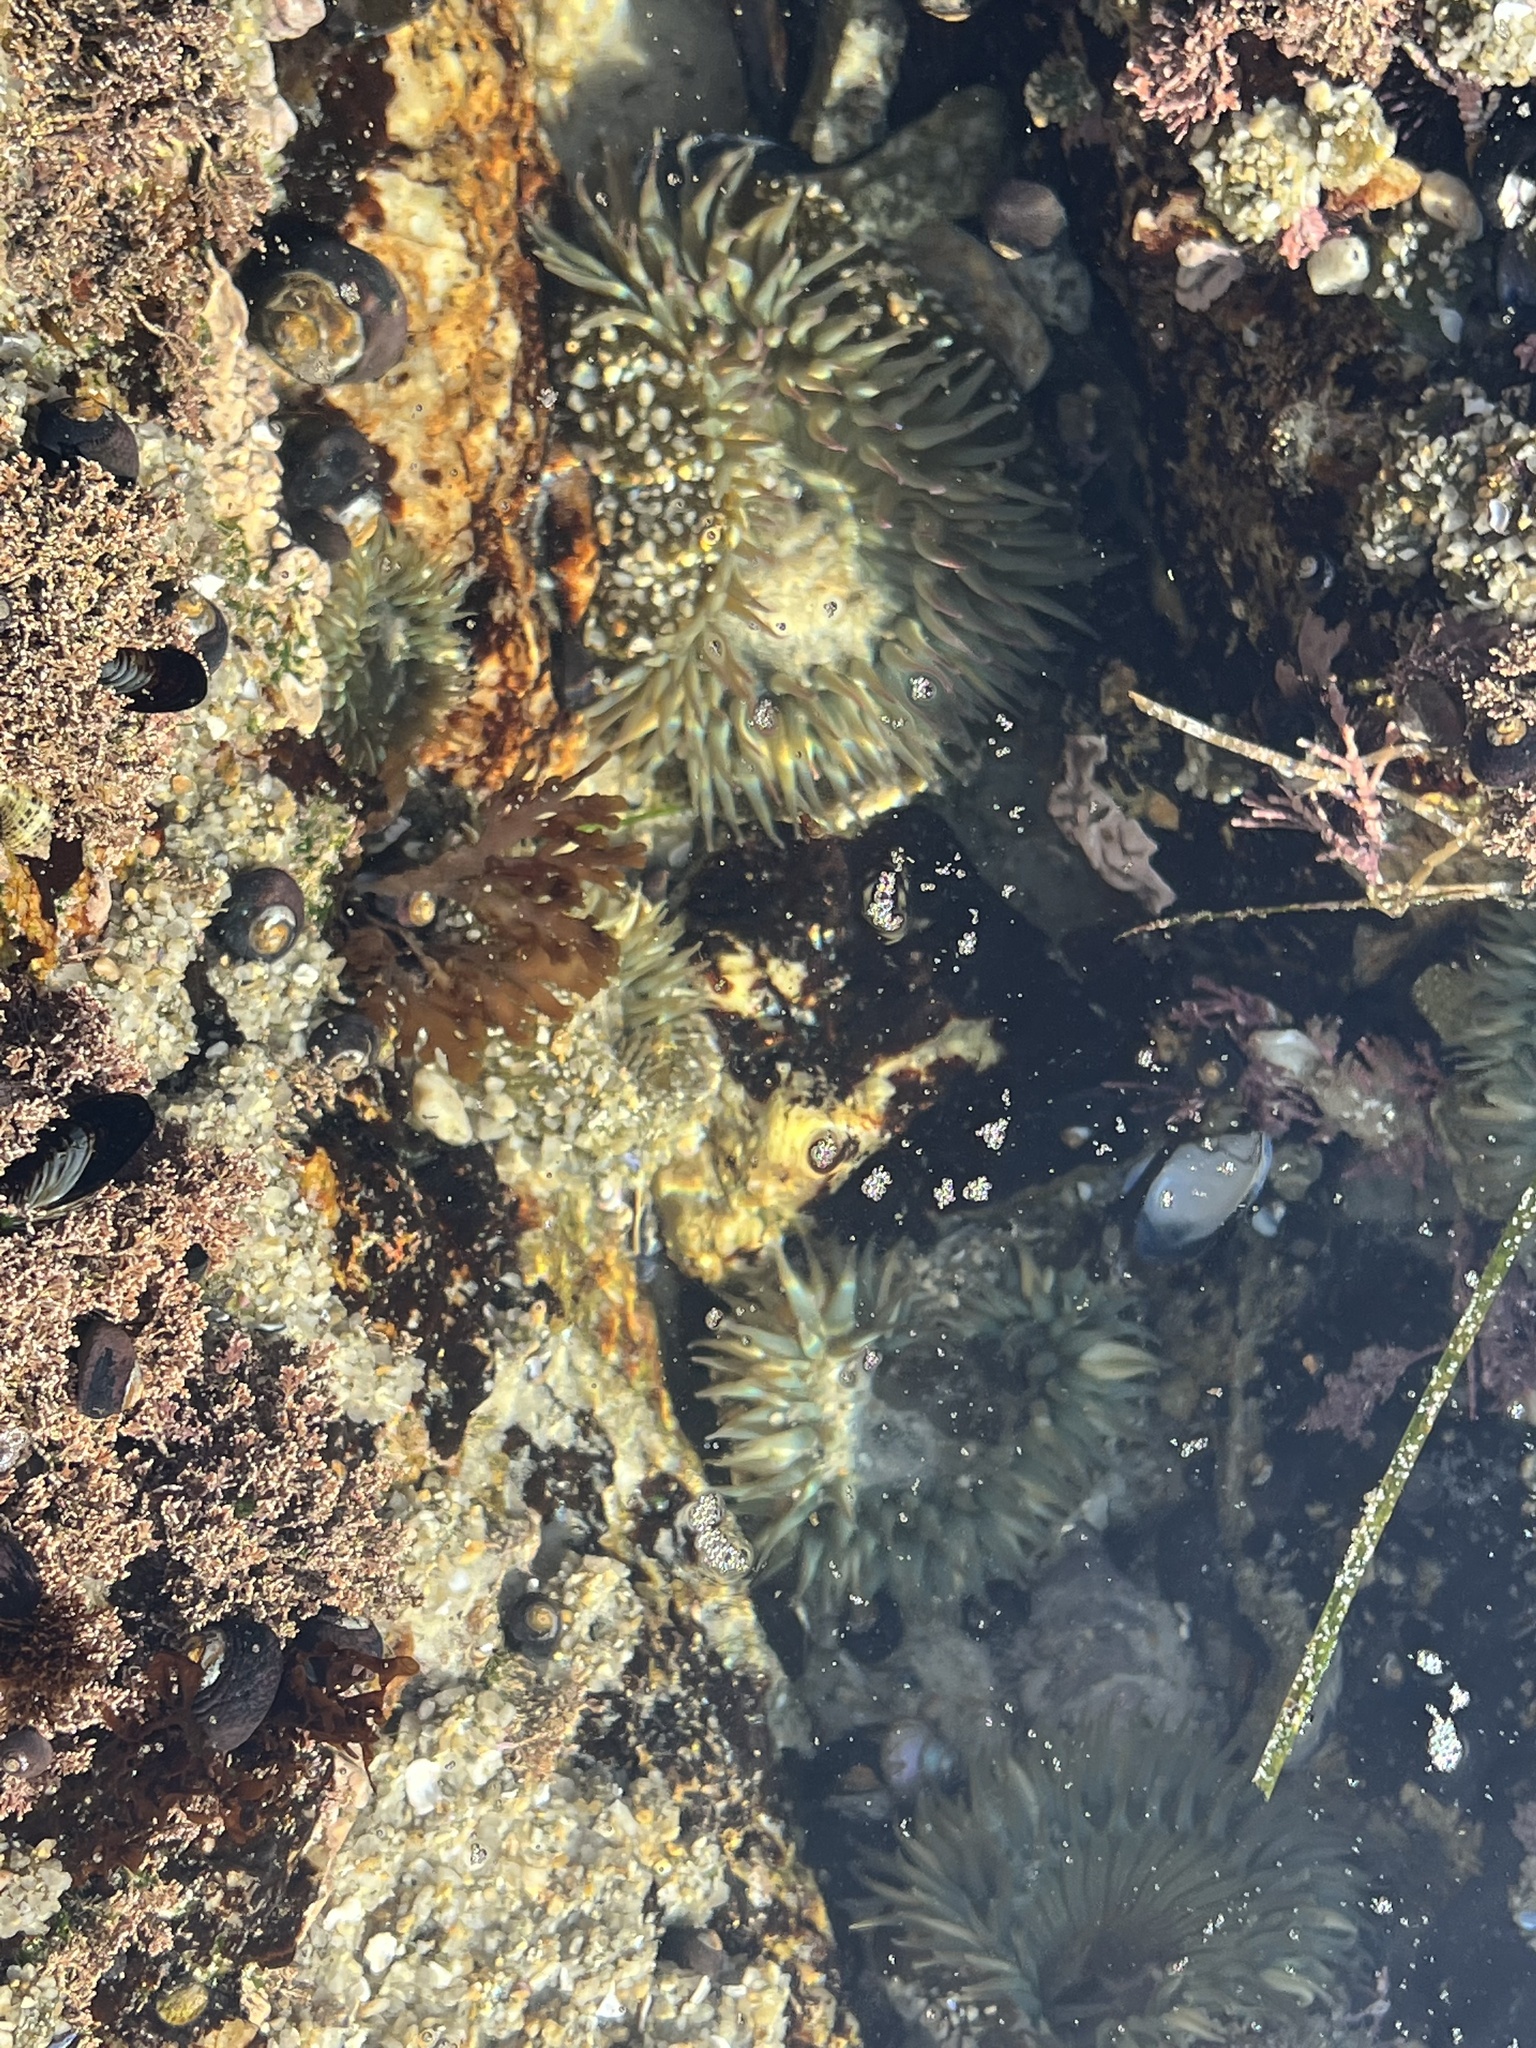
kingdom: Animalia
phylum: Cnidaria
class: Anthozoa
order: Actiniaria
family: Actiniidae
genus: Anthopleura
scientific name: Anthopleura sola
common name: Sun anemone
